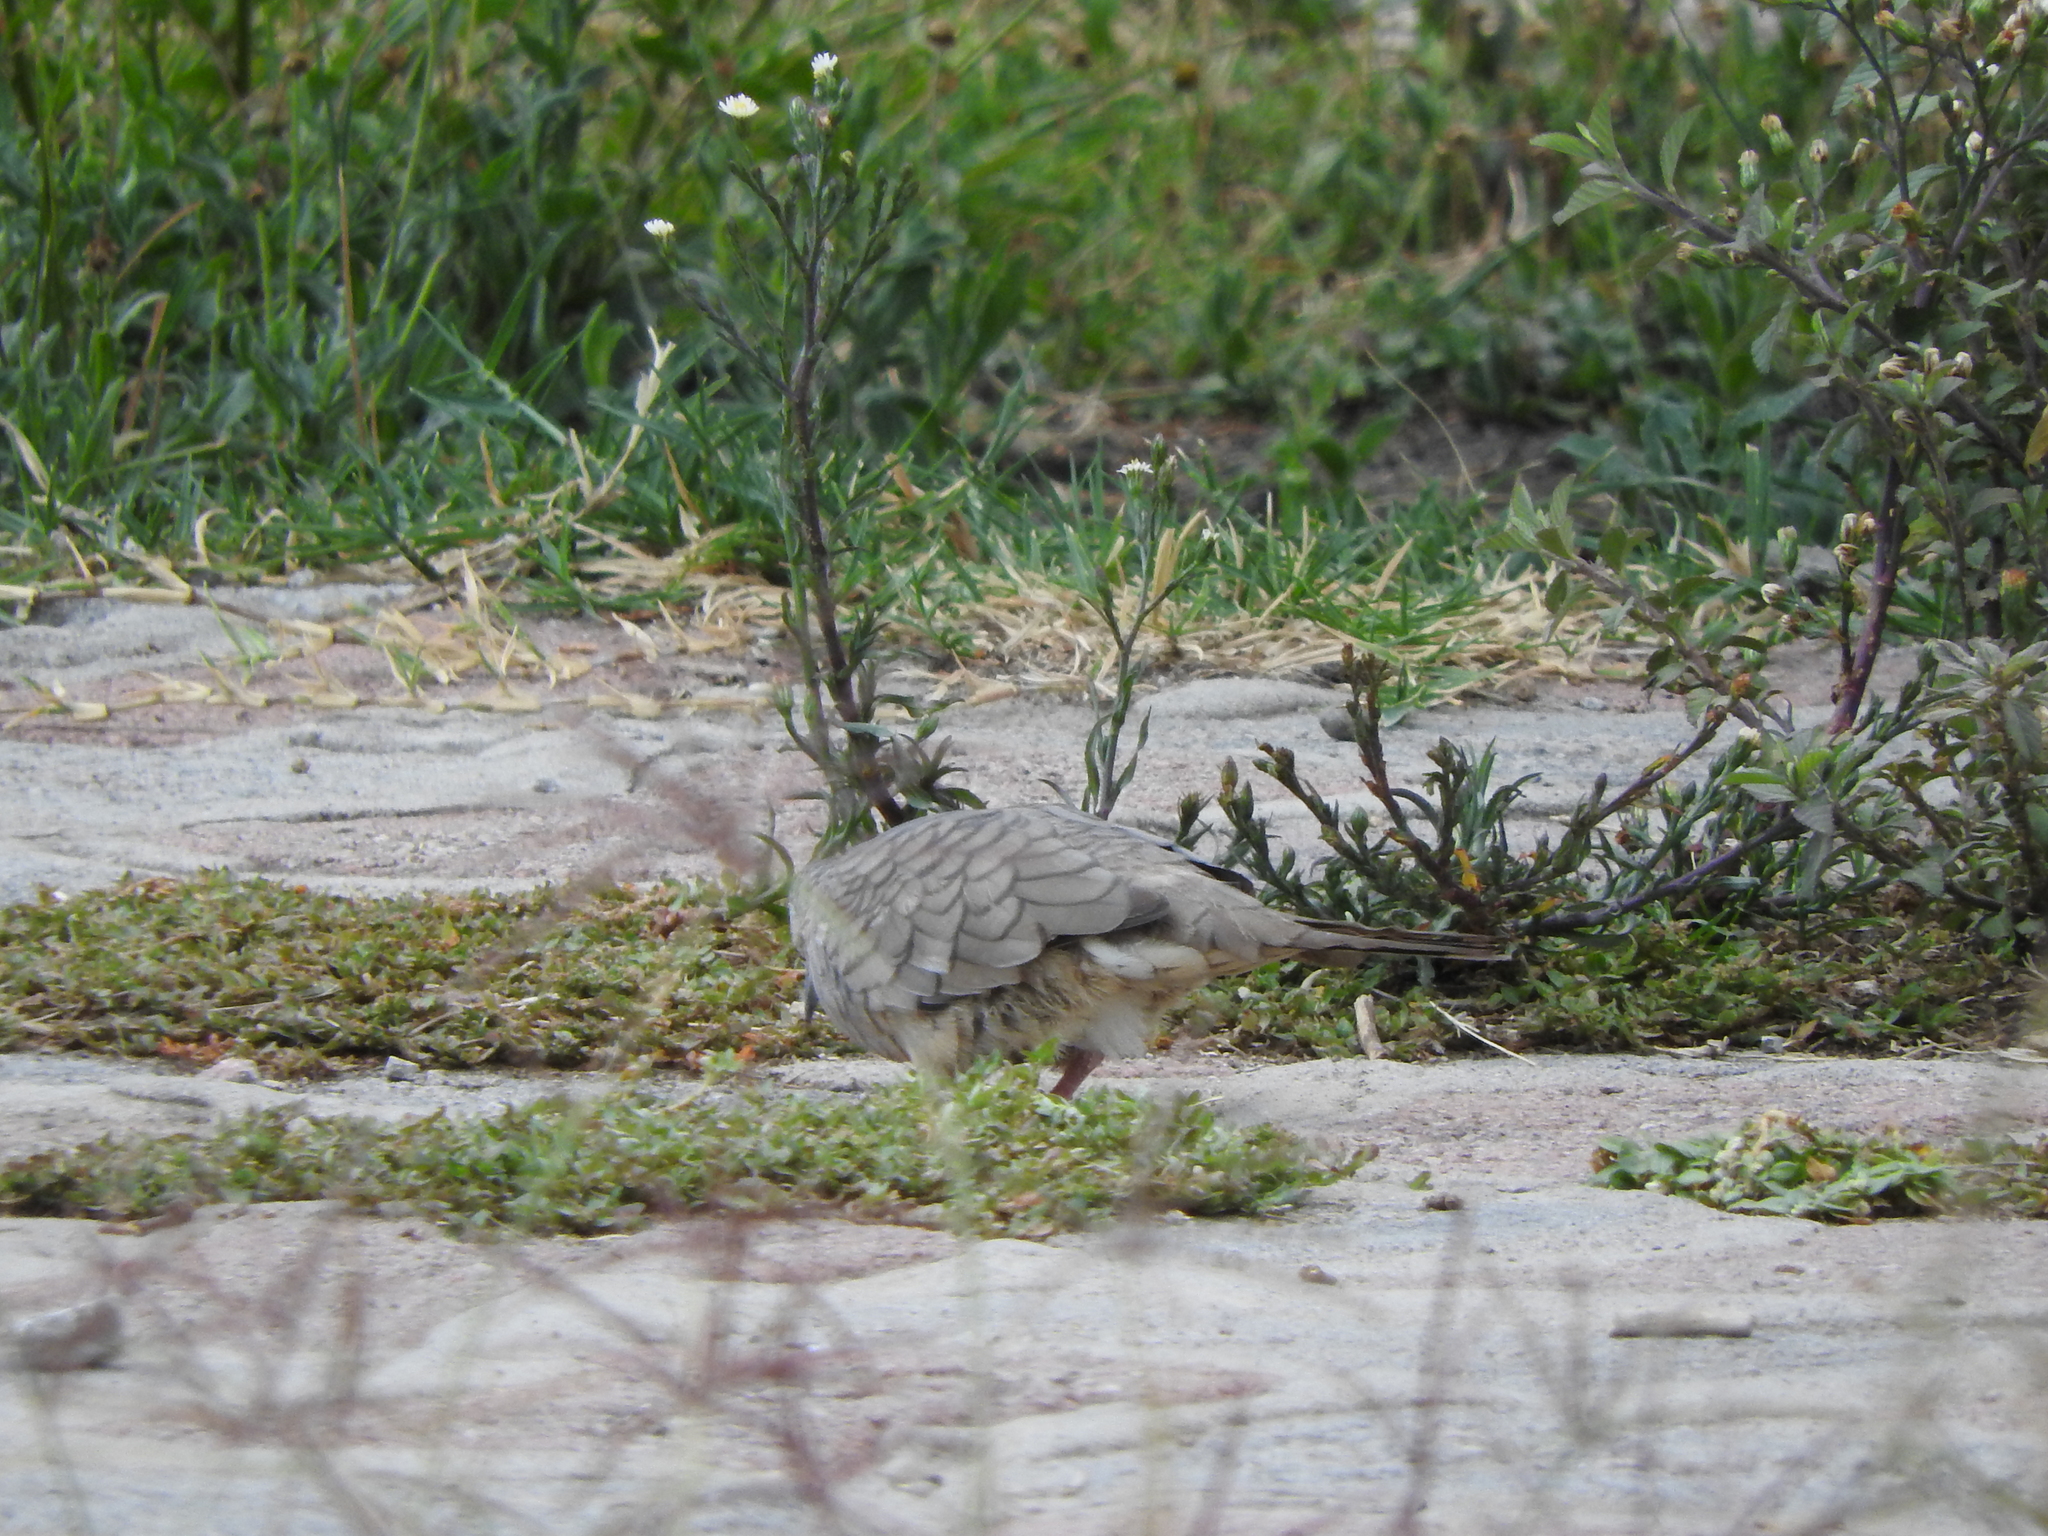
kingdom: Animalia
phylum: Chordata
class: Aves
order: Columbiformes
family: Columbidae
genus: Columbina
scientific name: Columbina inca
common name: Inca dove
